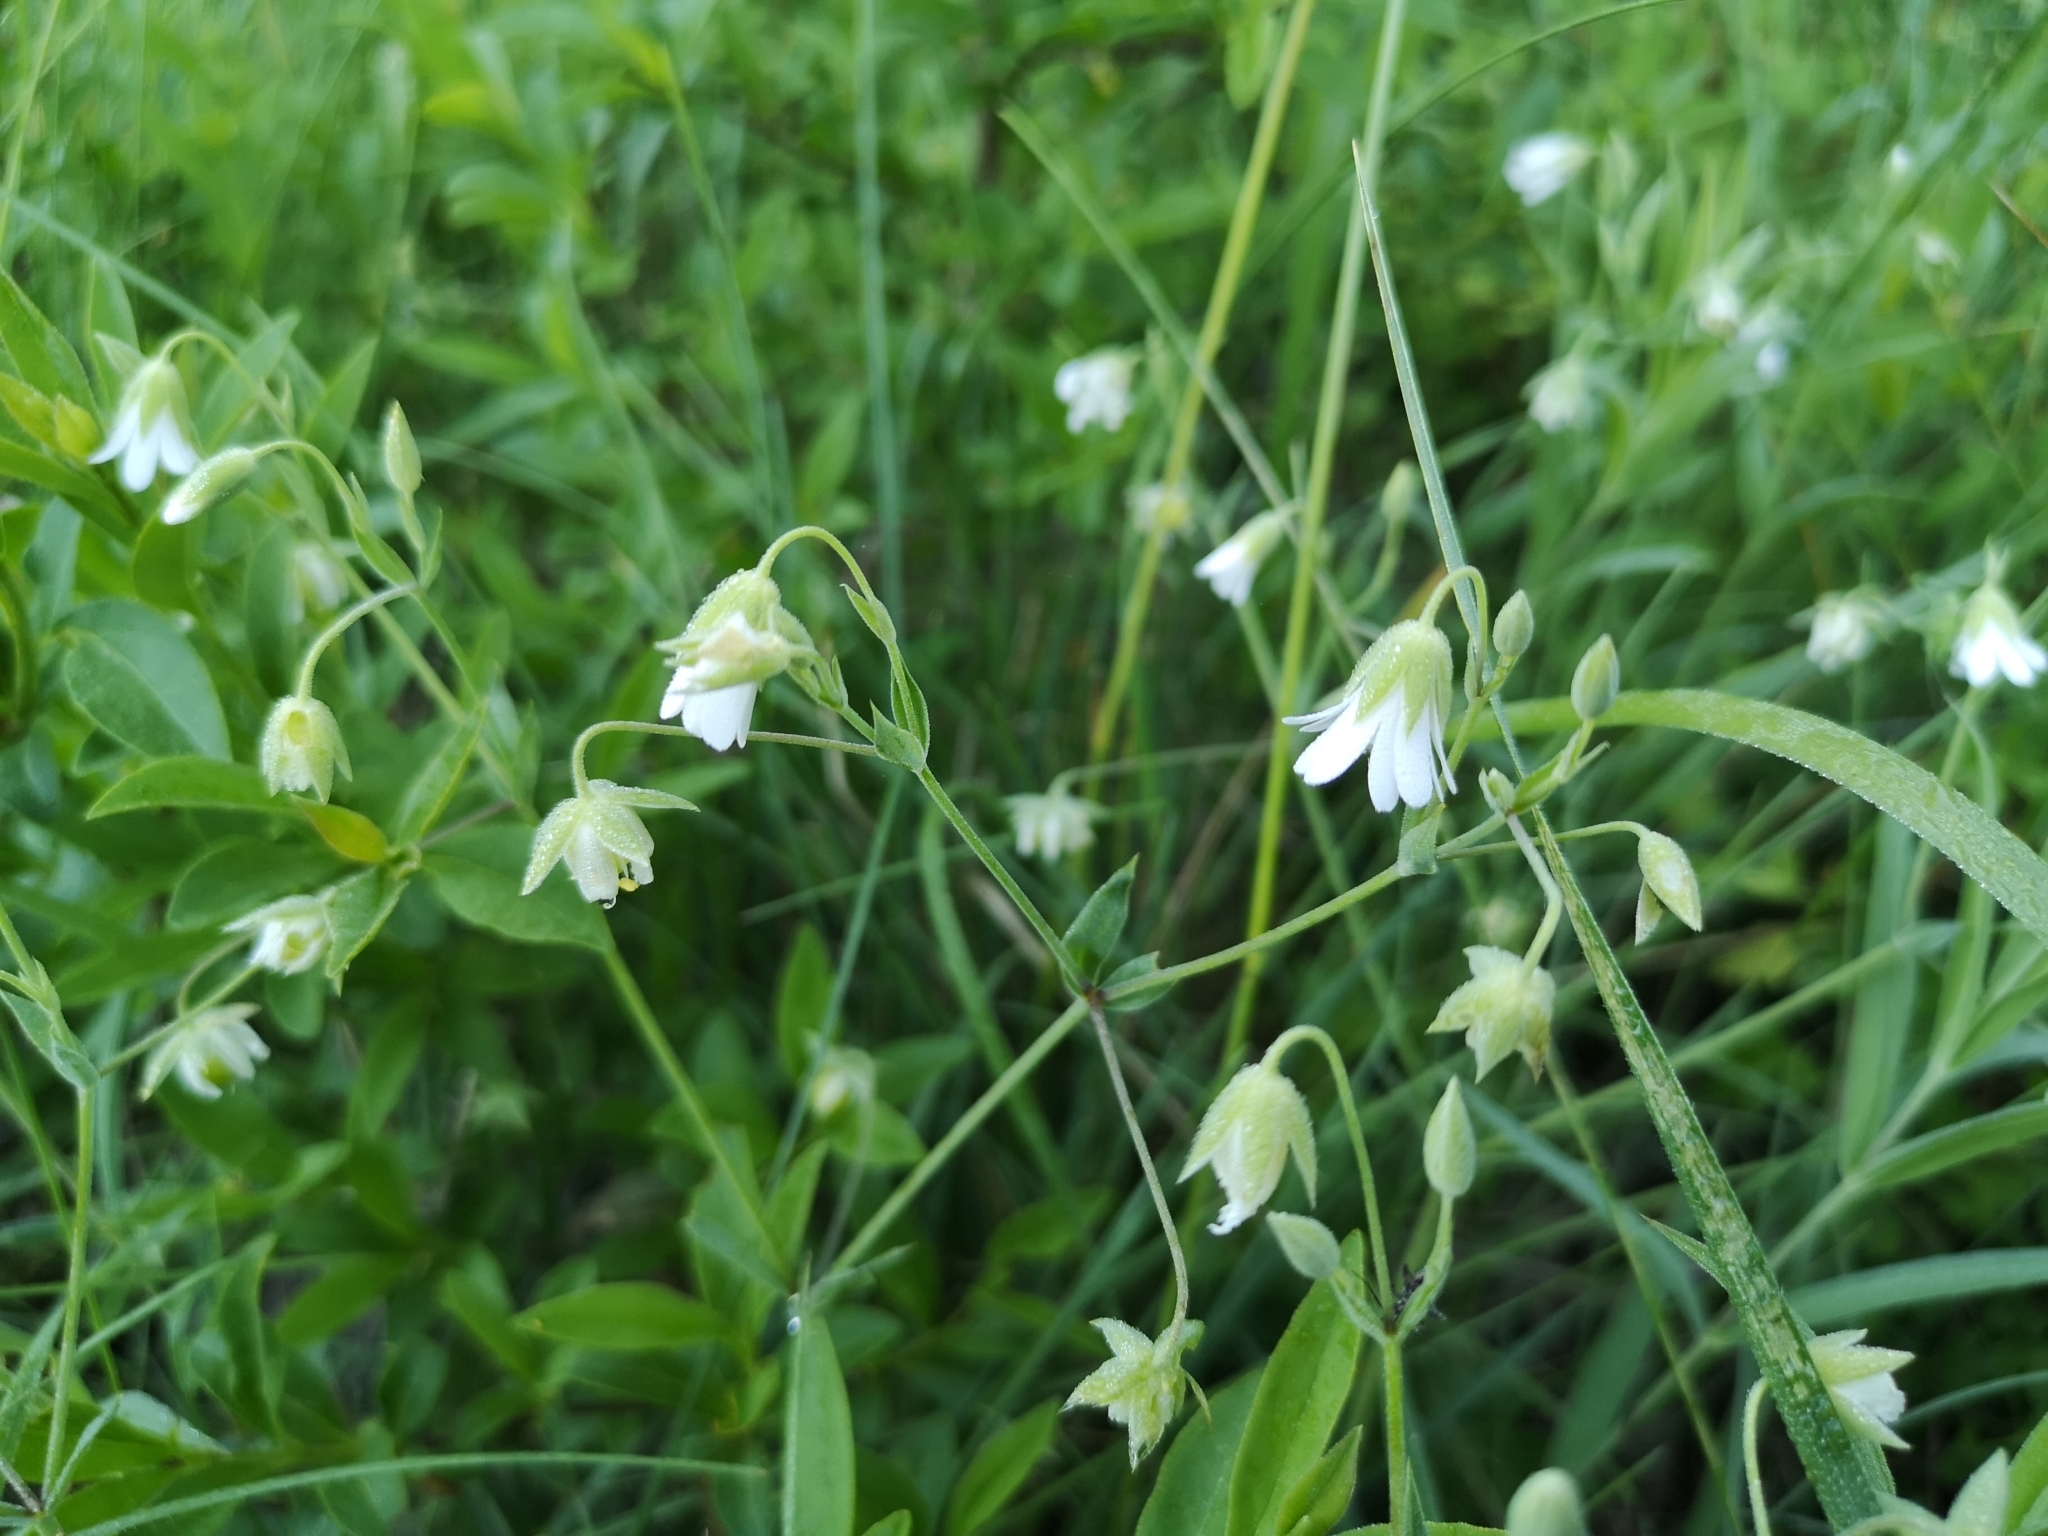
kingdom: Plantae
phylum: Tracheophyta
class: Magnoliopsida
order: Caryophyllales
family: Caryophyllaceae
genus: Rabelera
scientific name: Rabelera holostea
